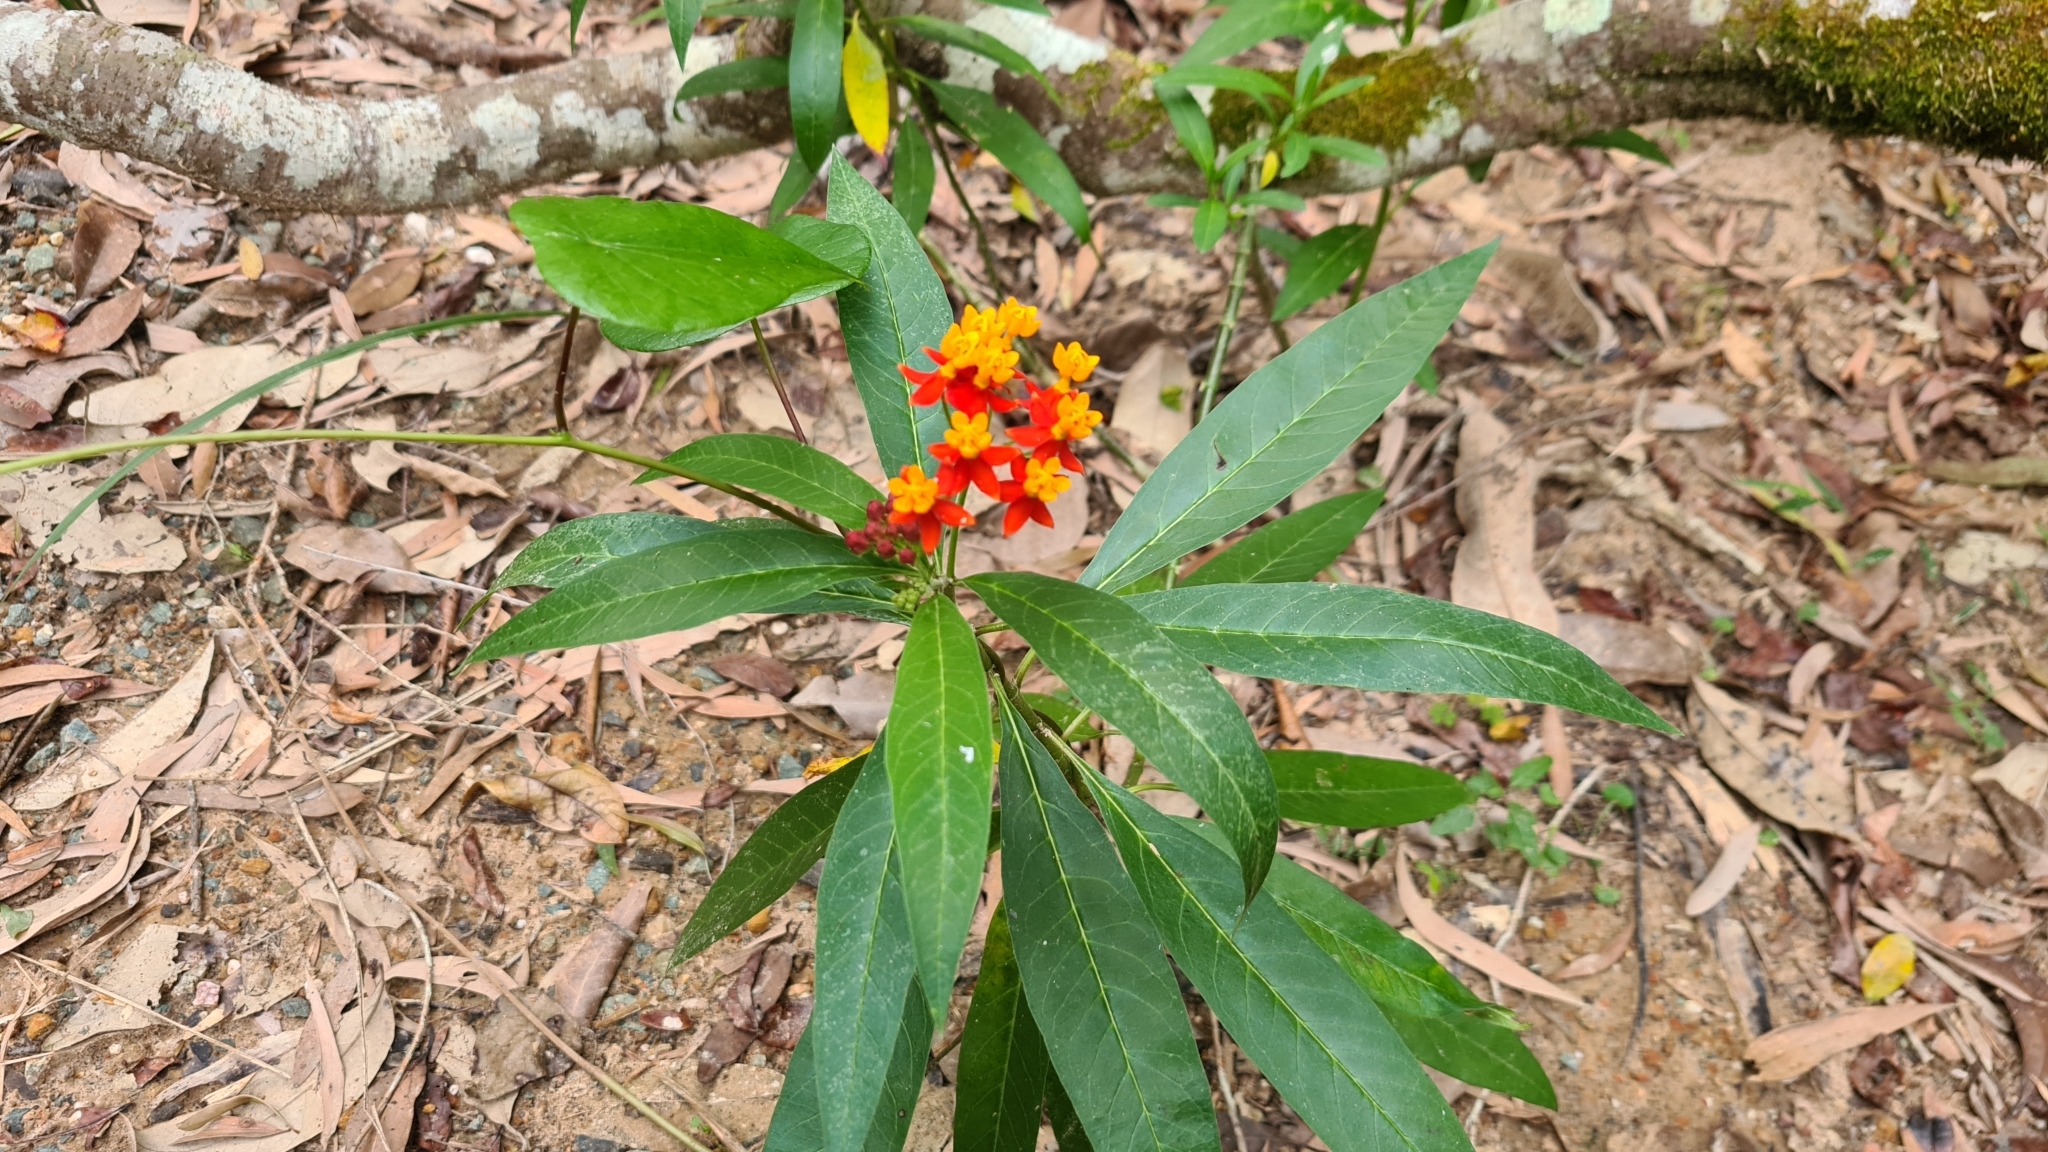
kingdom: Plantae
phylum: Tracheophyta
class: Magnoliopsida
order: Gentianales
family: Apocynaceae
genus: Asclepias
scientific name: Asclepias curassavica
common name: Bloodflower
